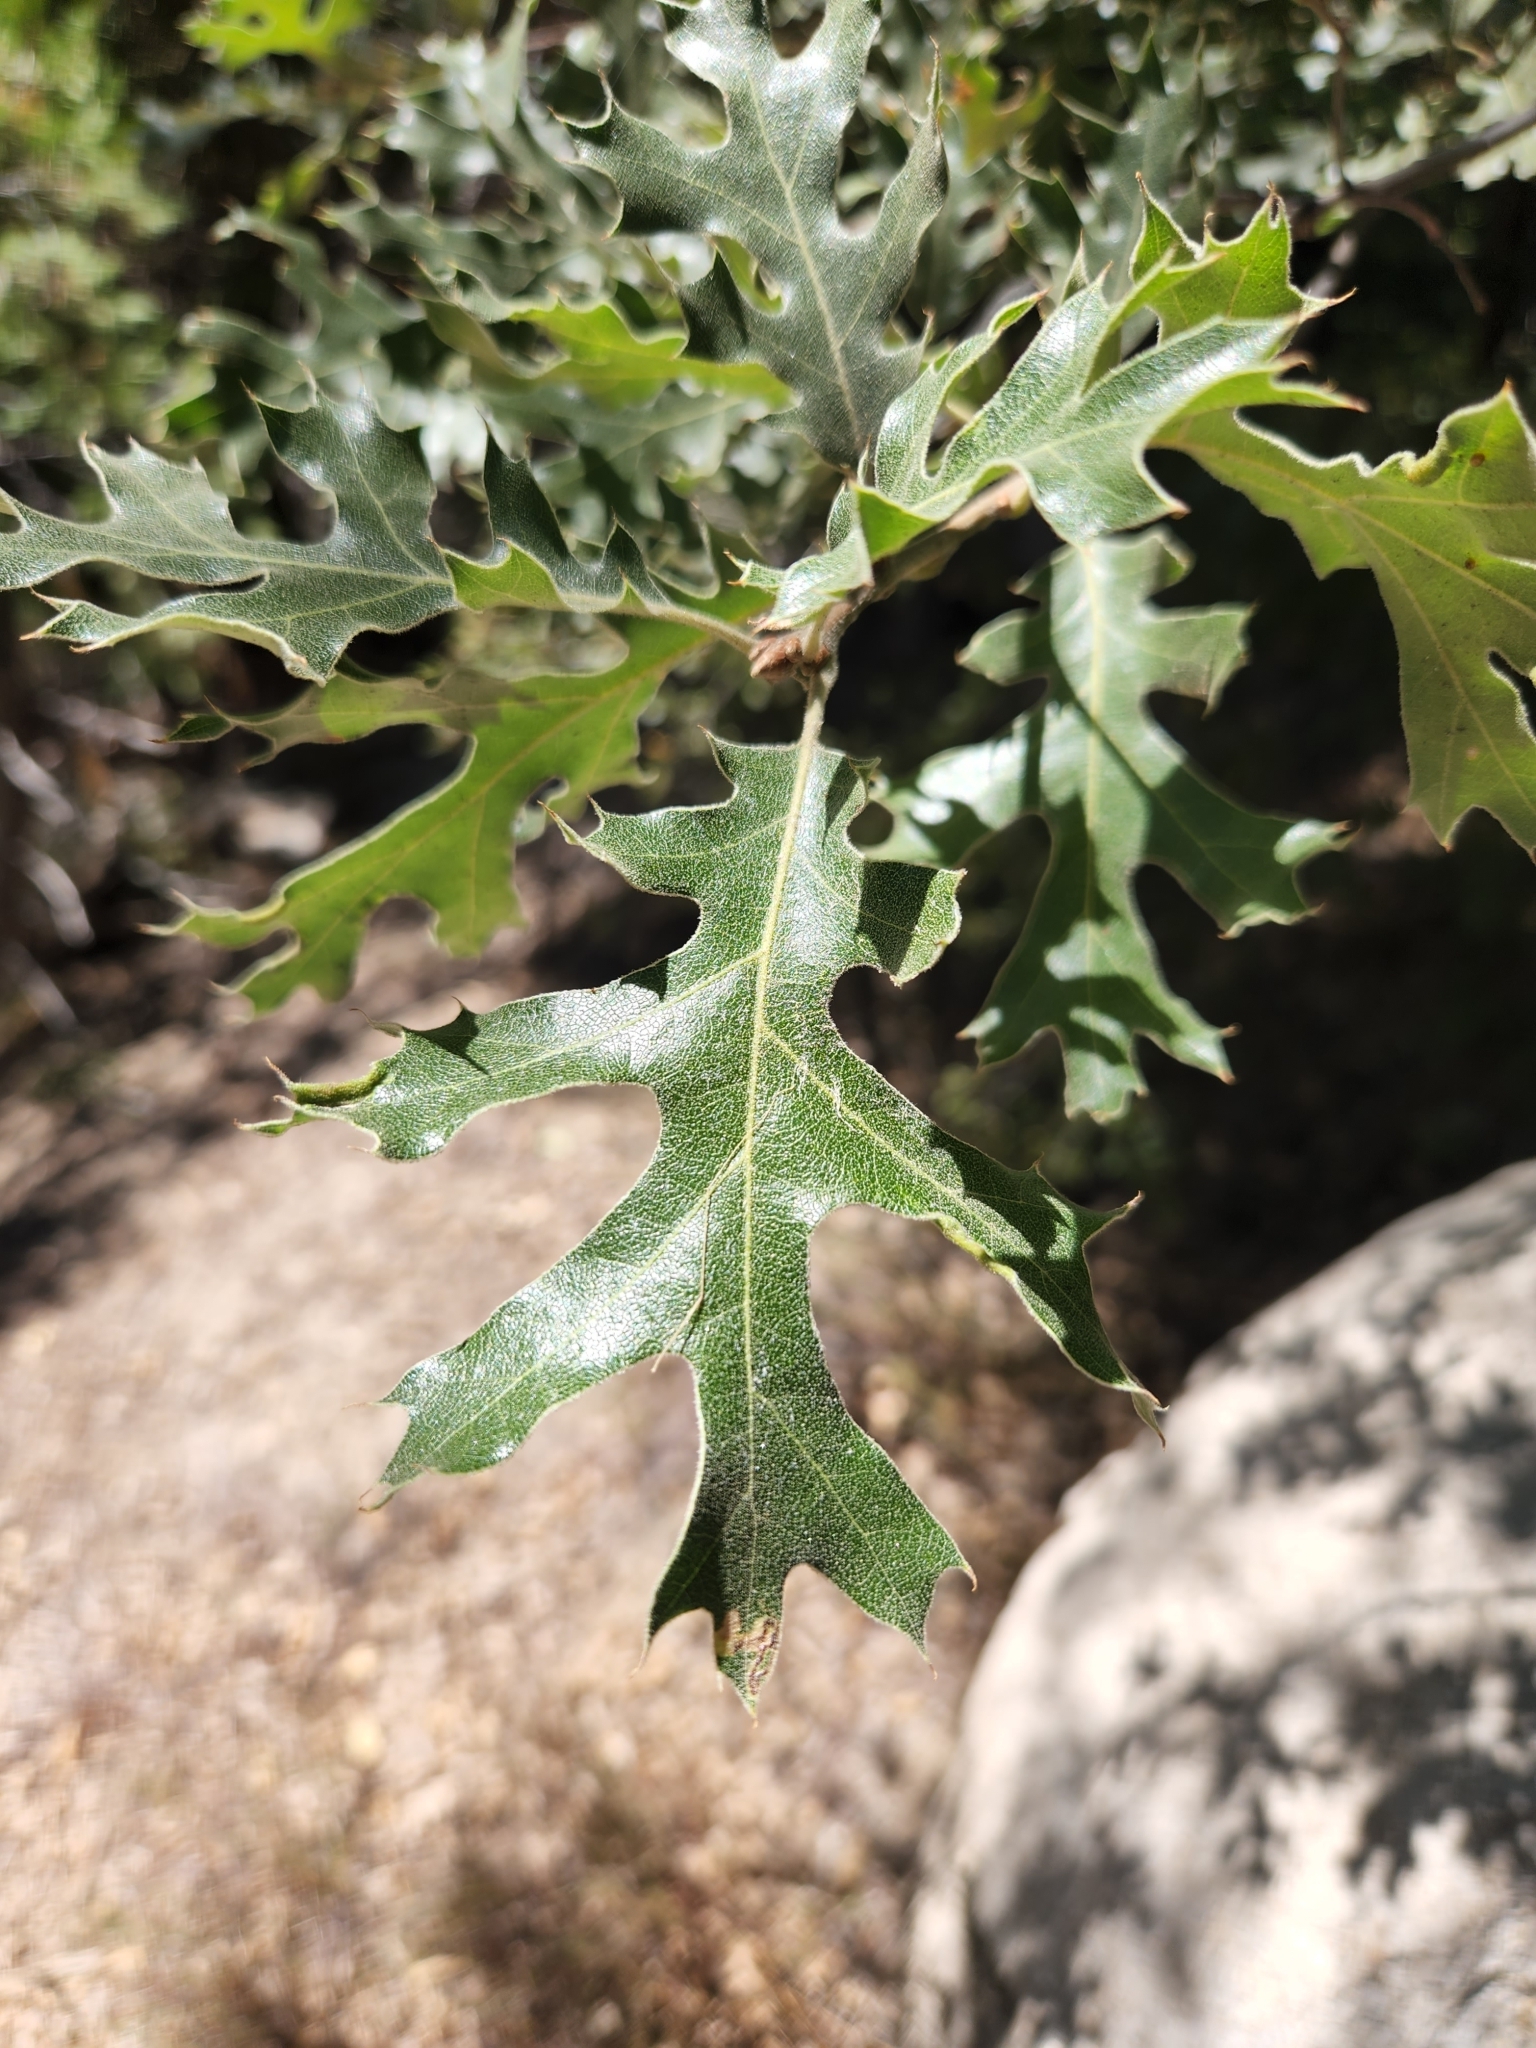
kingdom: Plantae
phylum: Tracheophyta
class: Magnoliopsida
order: Fagales
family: Fagaceae
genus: Quercus
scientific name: Quercus kelloggii
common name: California black oak
